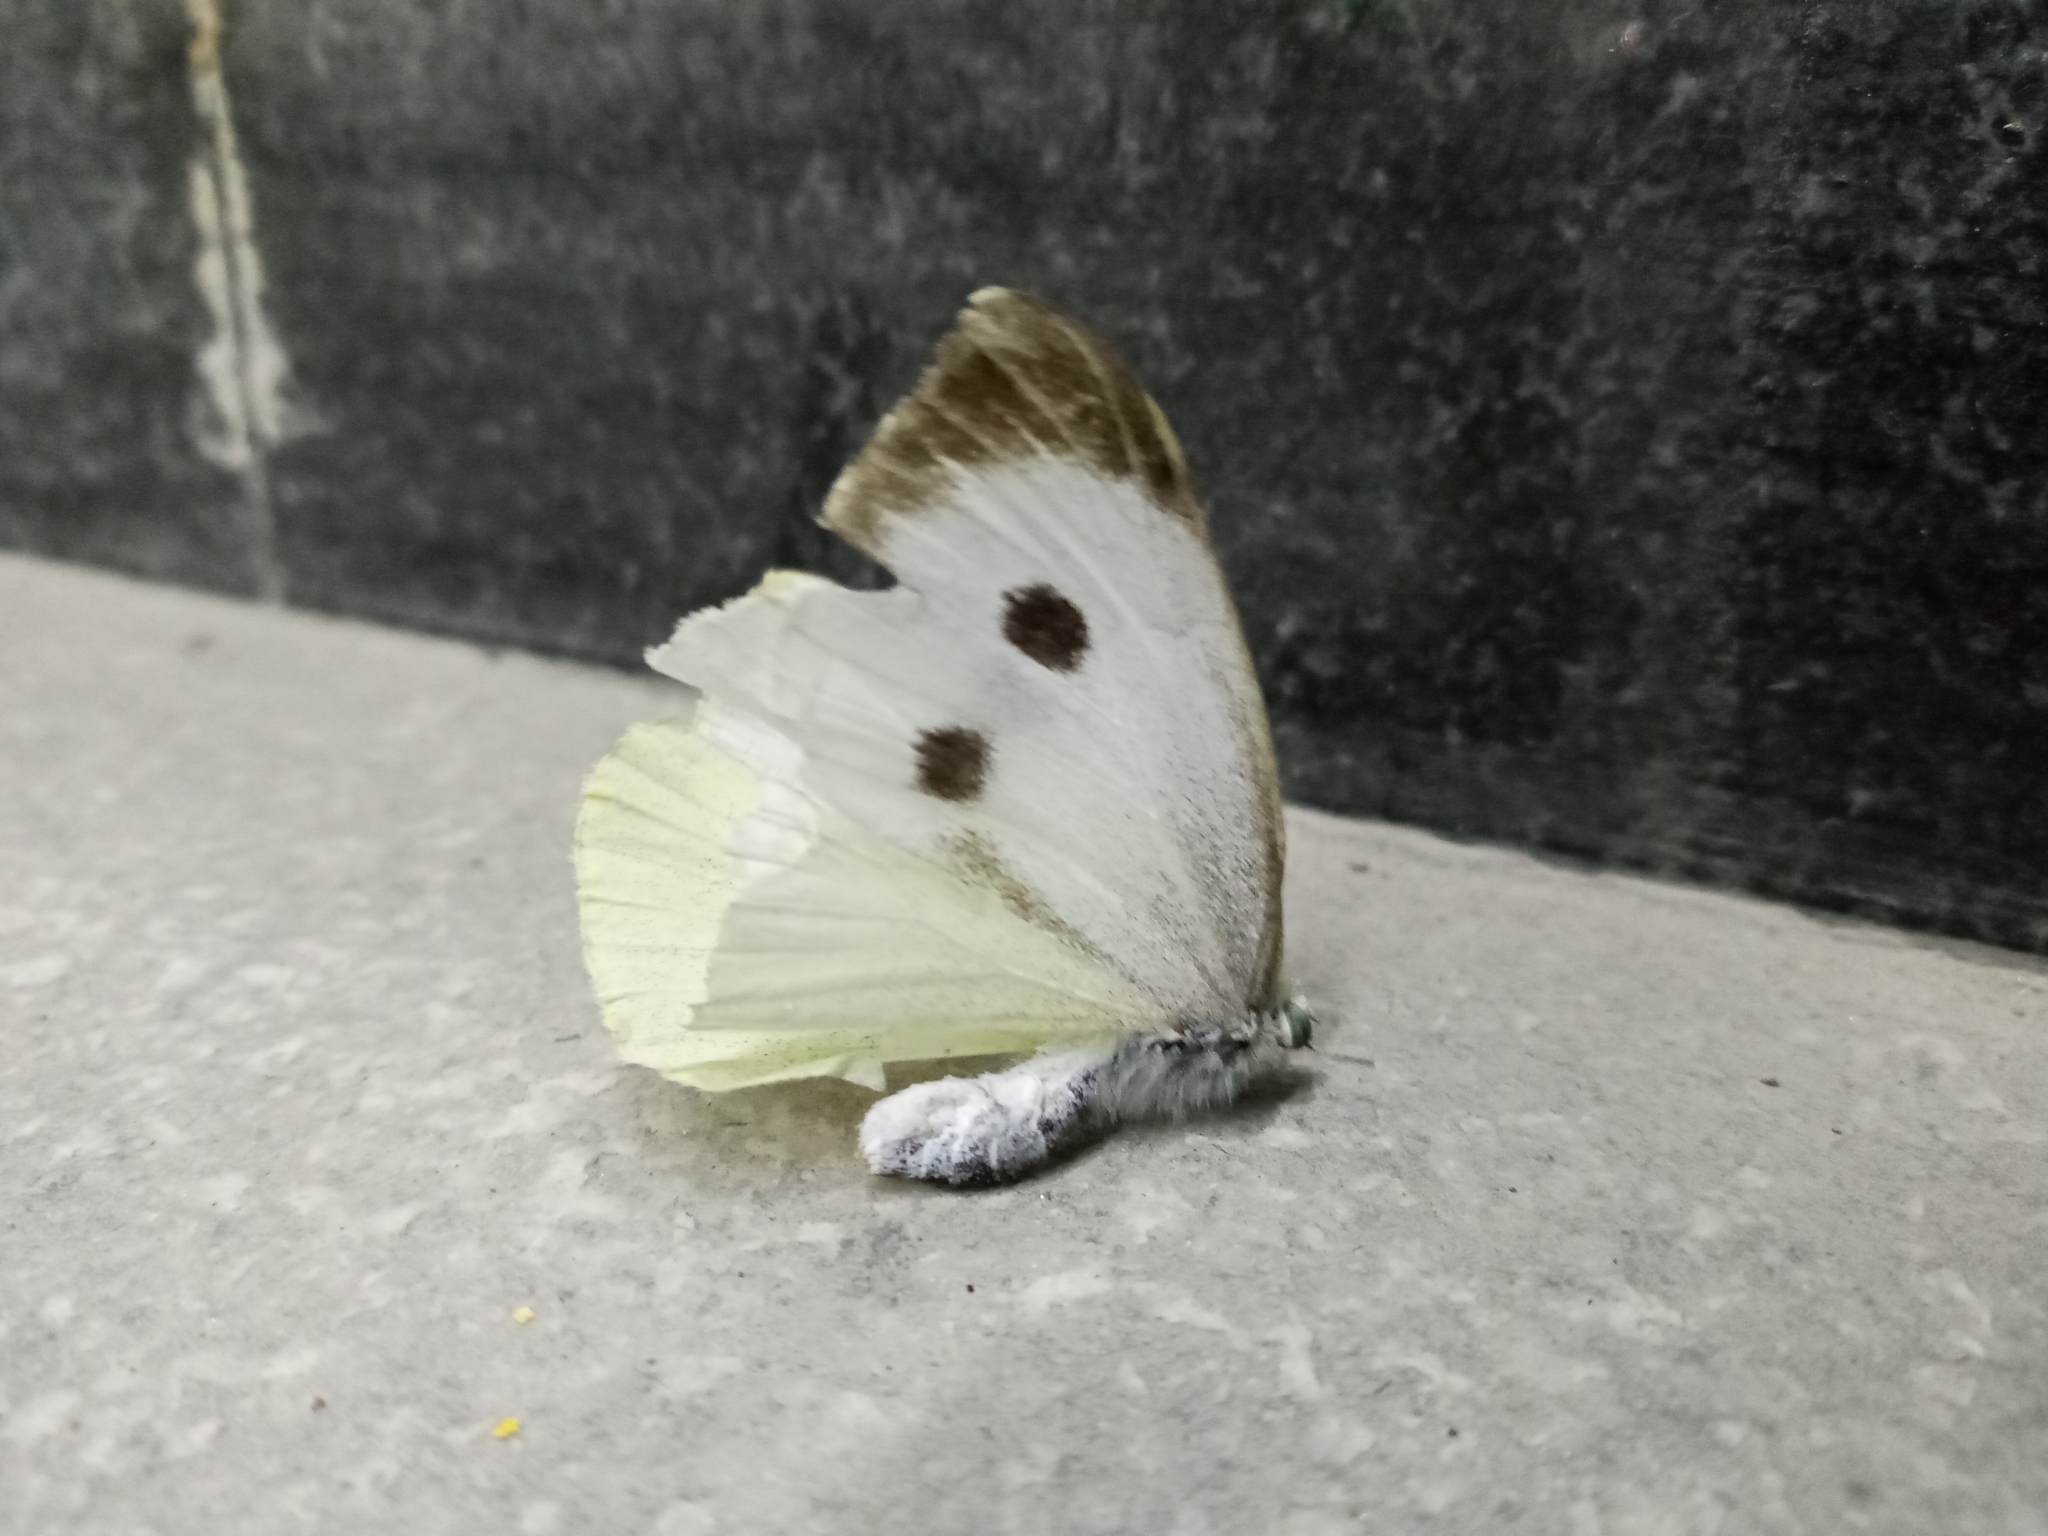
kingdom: Animalia
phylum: Arthropoda
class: Insecta
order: Lepidoptera
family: Pieridae
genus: Pieris
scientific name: Pieris brassicae
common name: Large white
